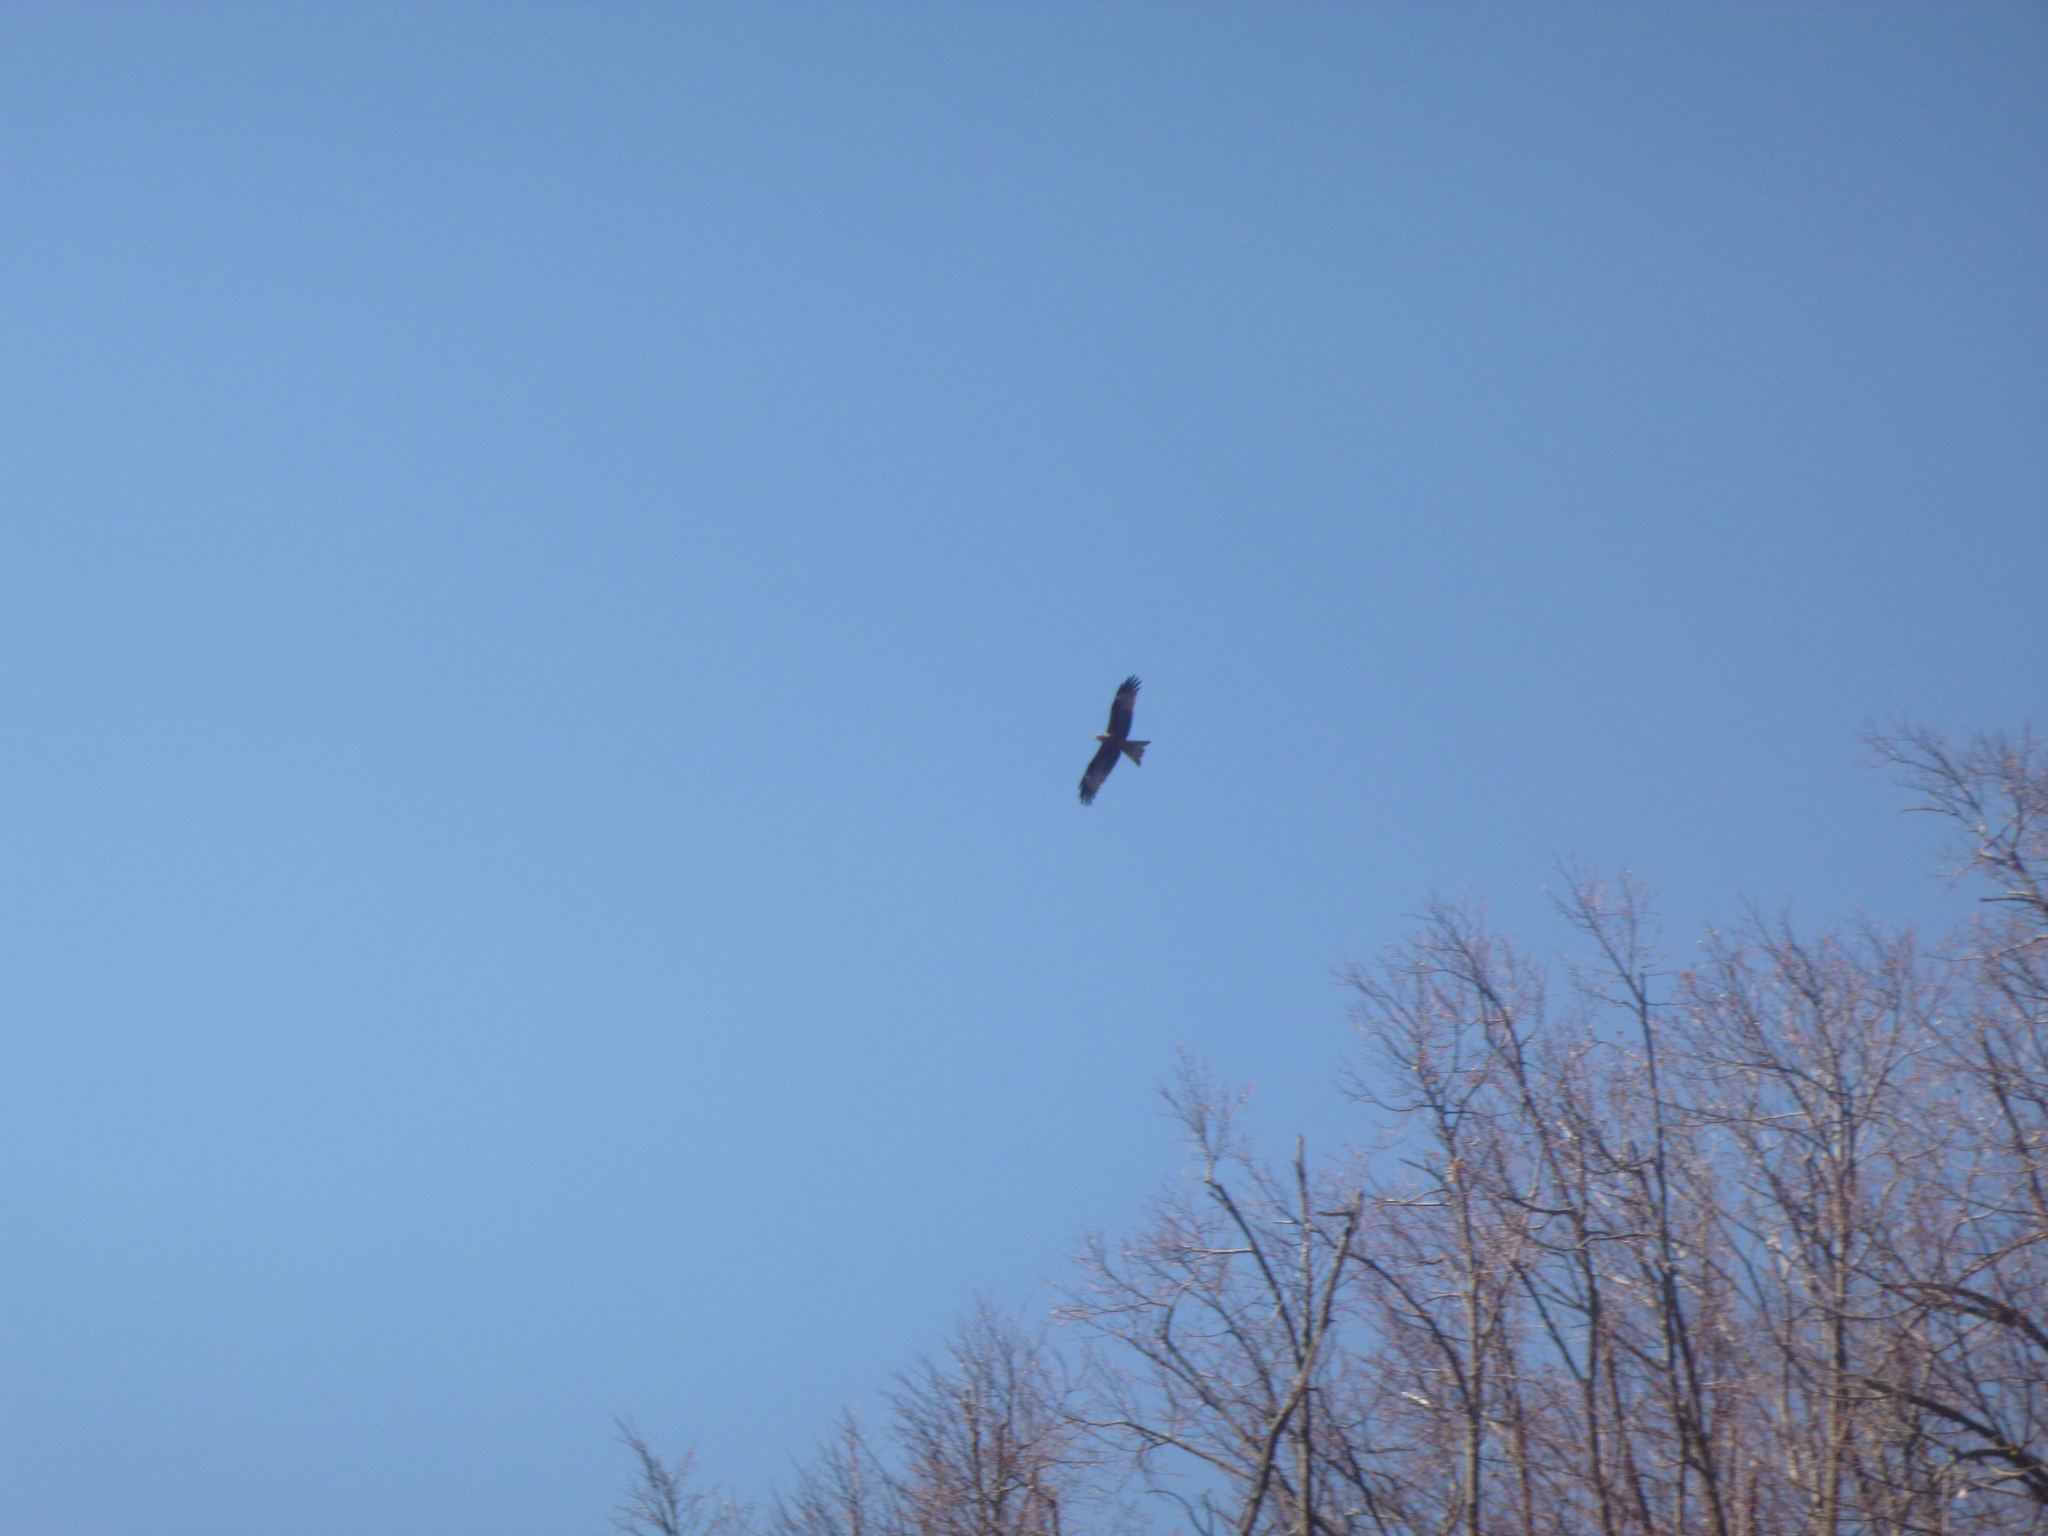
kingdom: Animalia
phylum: Chordata
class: Aves
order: Accipitriformes
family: Accipitridae
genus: Milvus
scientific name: Milvus migrans
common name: Black kite
